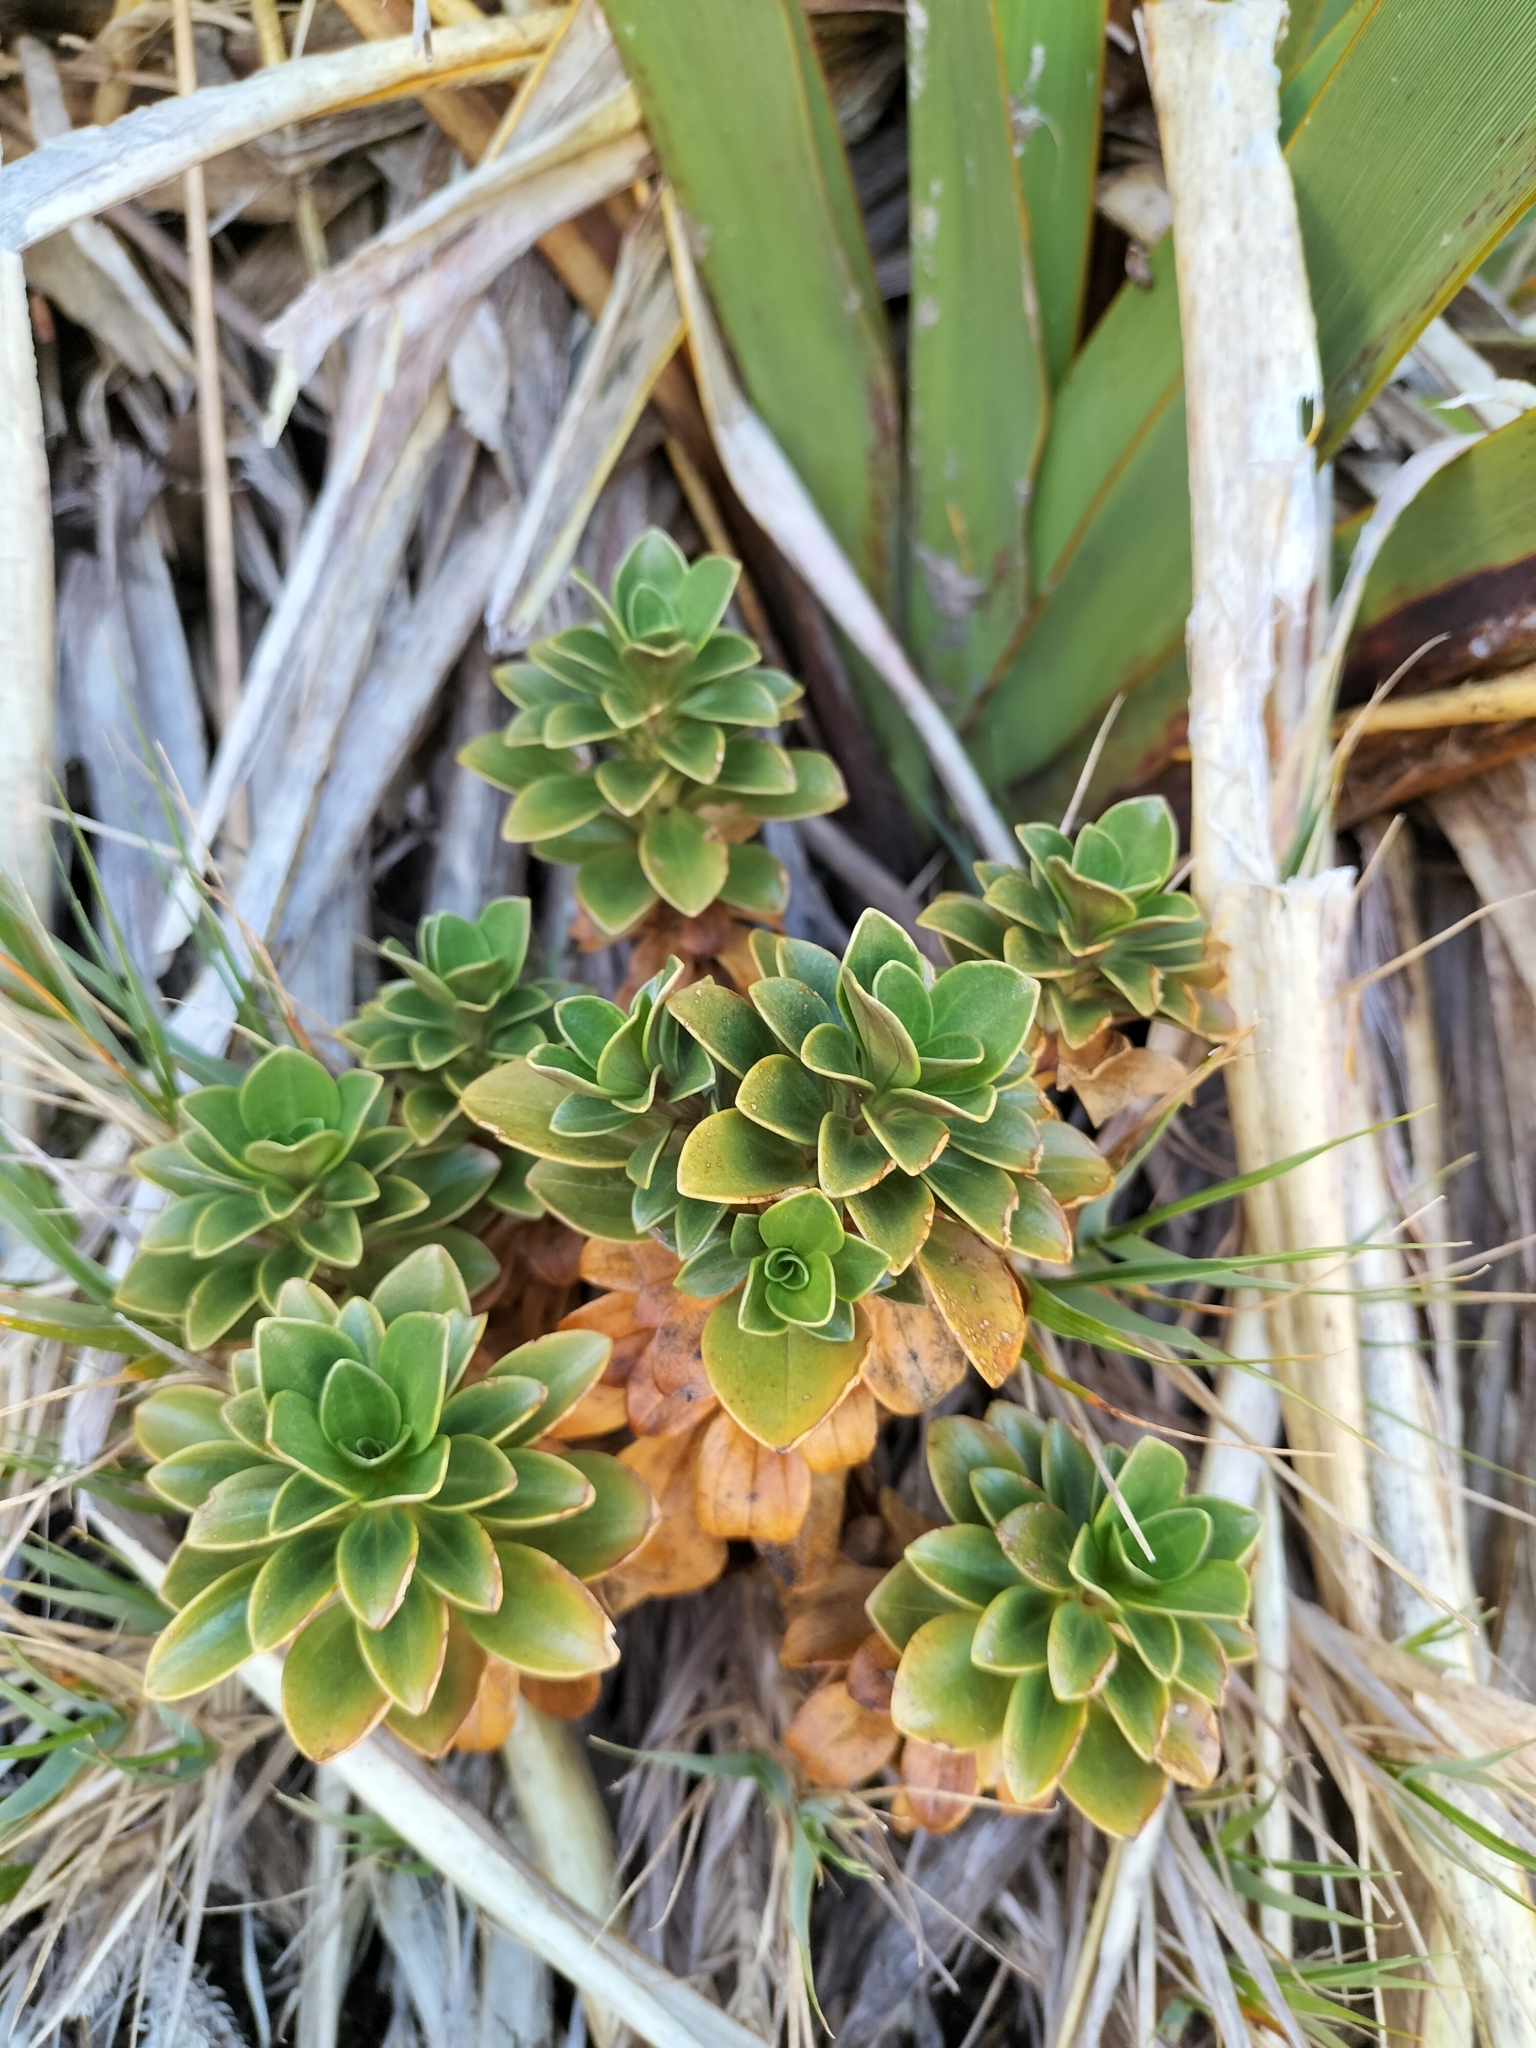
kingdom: Plantae
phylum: Tracheophyta
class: Magnoliopsida
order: Gentianales
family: Gentianaceae
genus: Gentianella
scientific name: Gentianella impressinervia
